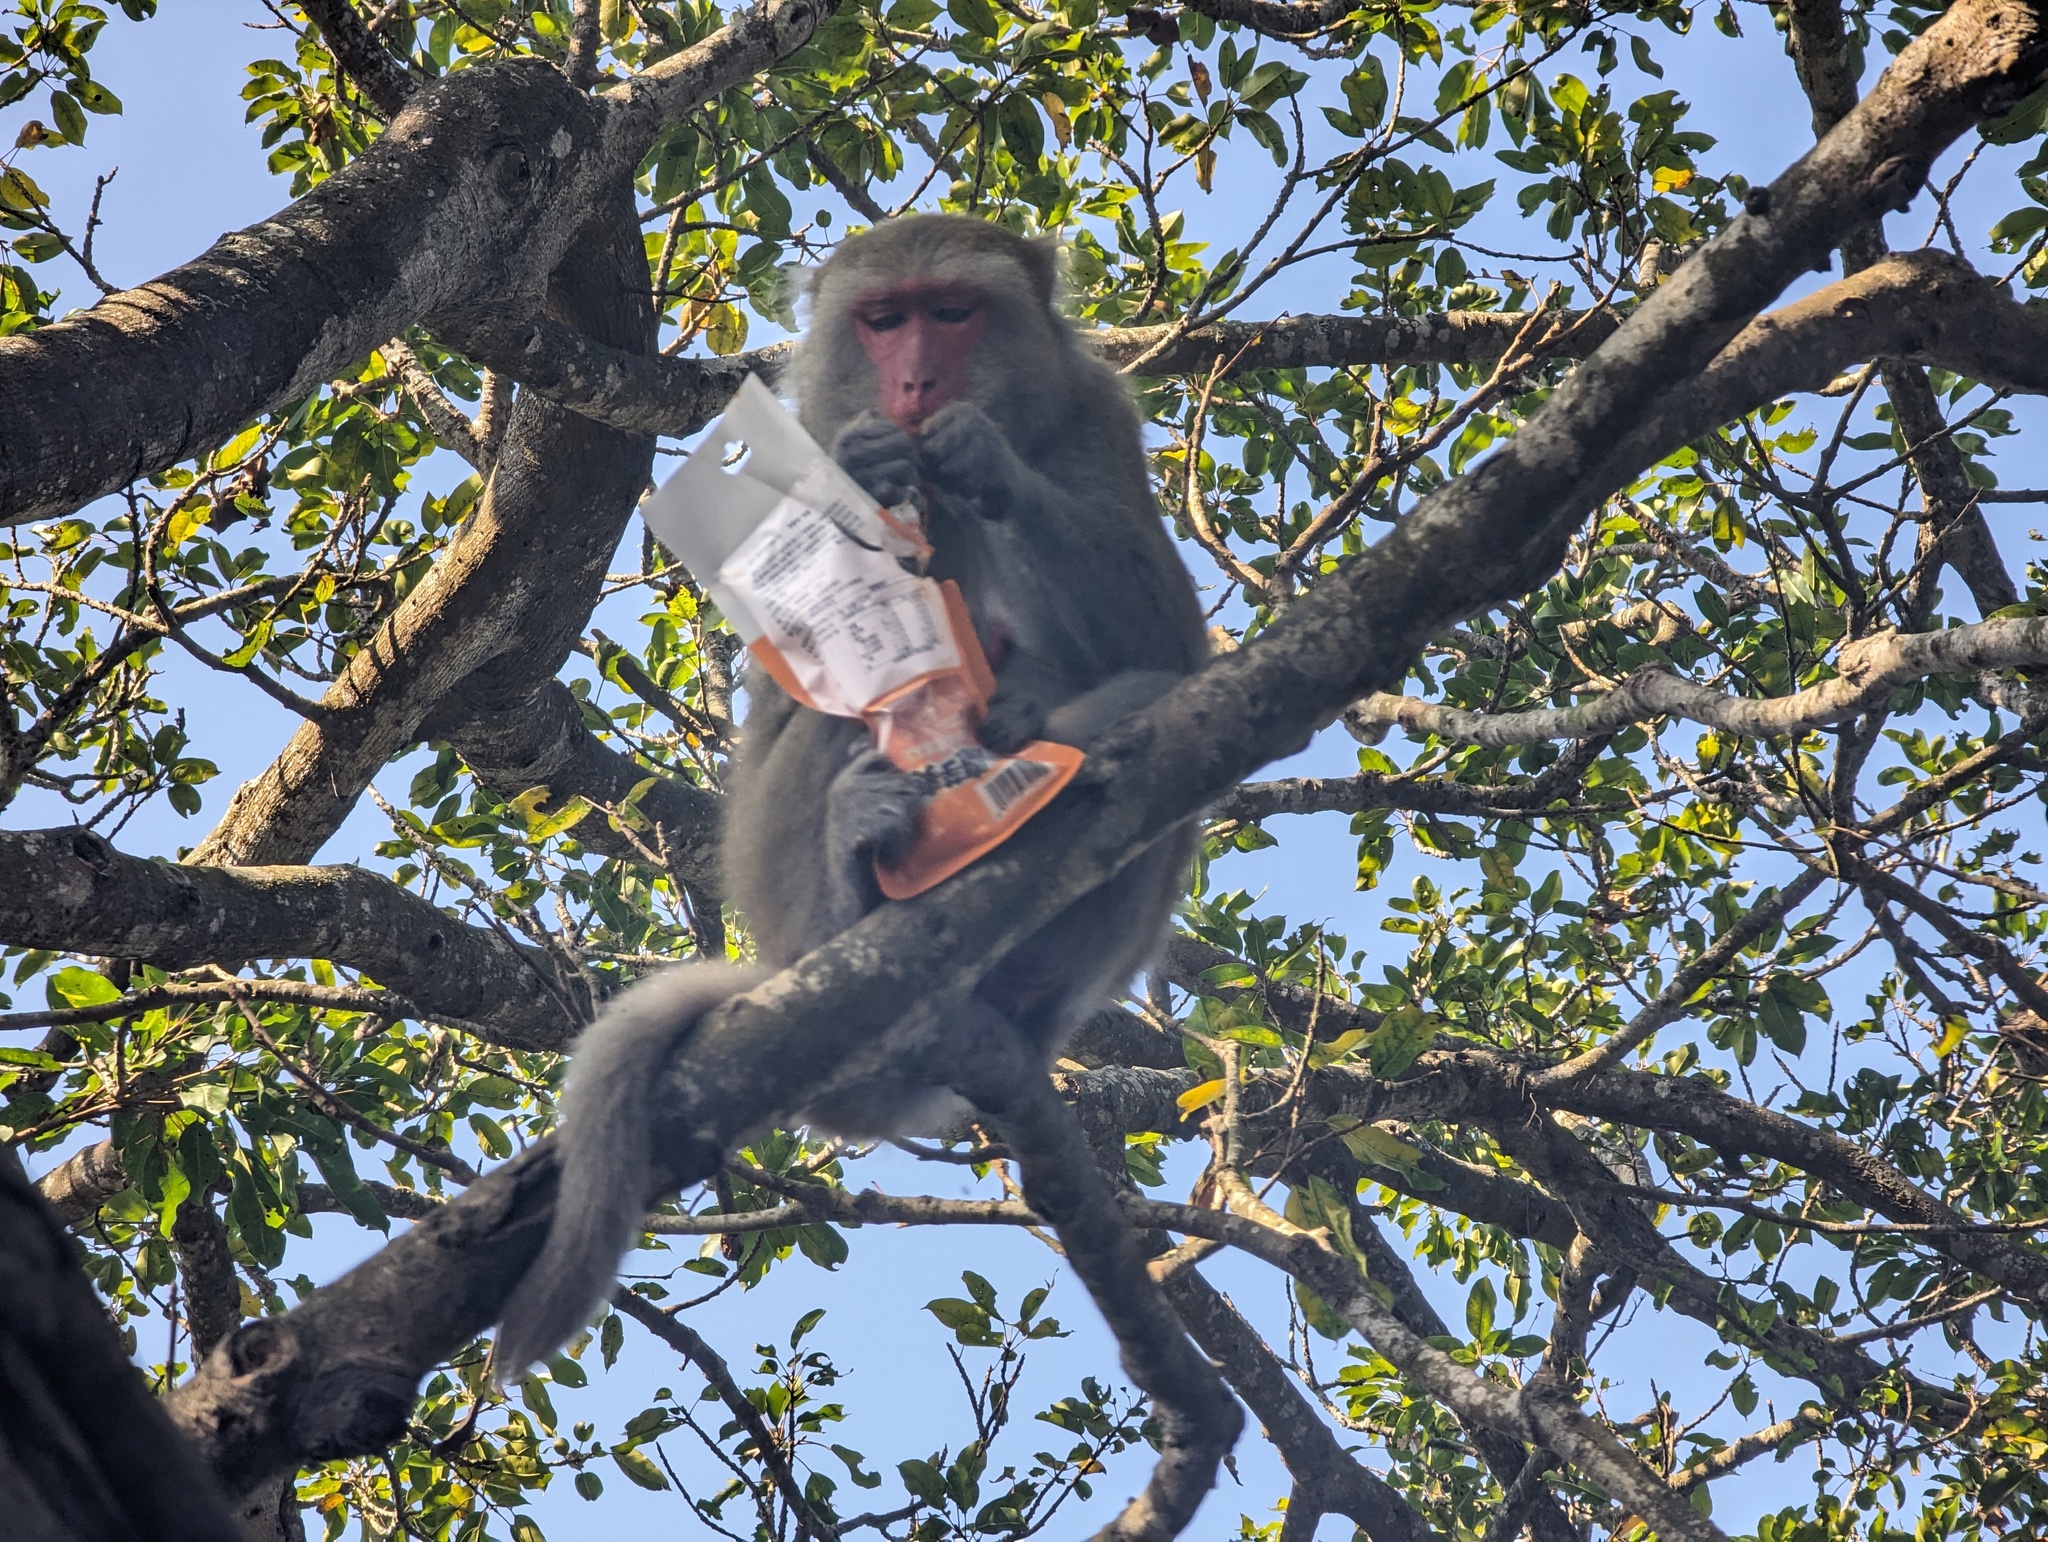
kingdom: Animalia
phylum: Chordata
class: Mammalia
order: Primates
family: Cercopithecidae
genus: Macaca
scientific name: Macaca cyclopis
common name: Formosan rock macaque
